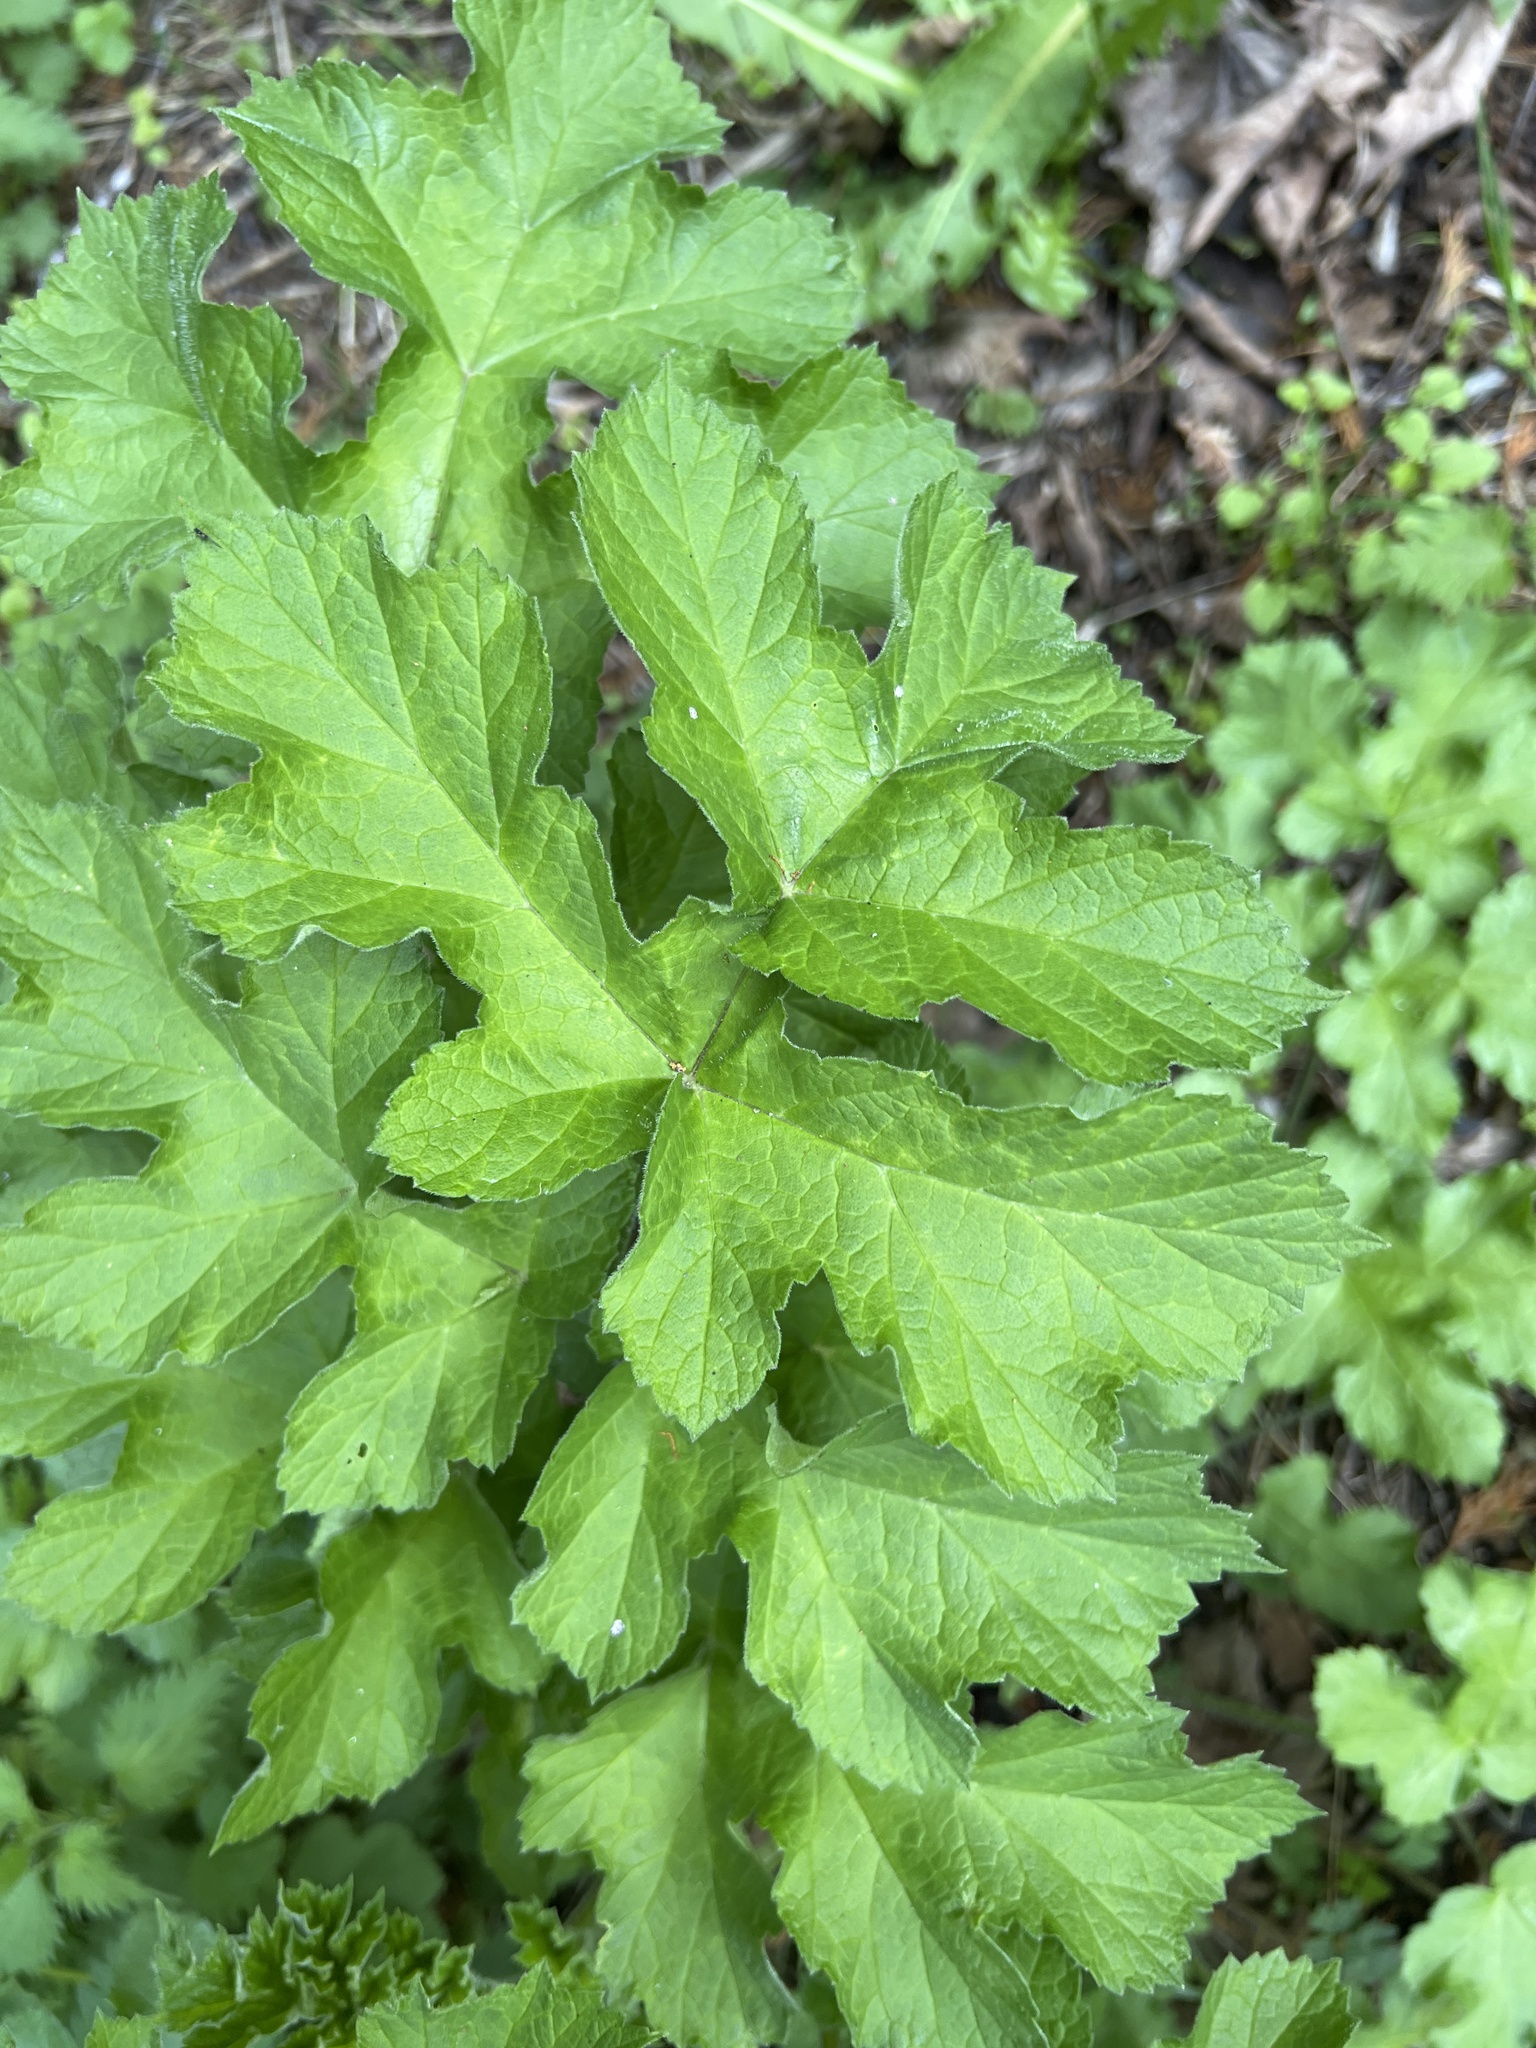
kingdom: Plantae
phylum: Tracheophyta
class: Magnoliopsida
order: Apiales
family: Apiaceae
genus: Heracleum
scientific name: Heracleum sphondylium
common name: Hogweed
